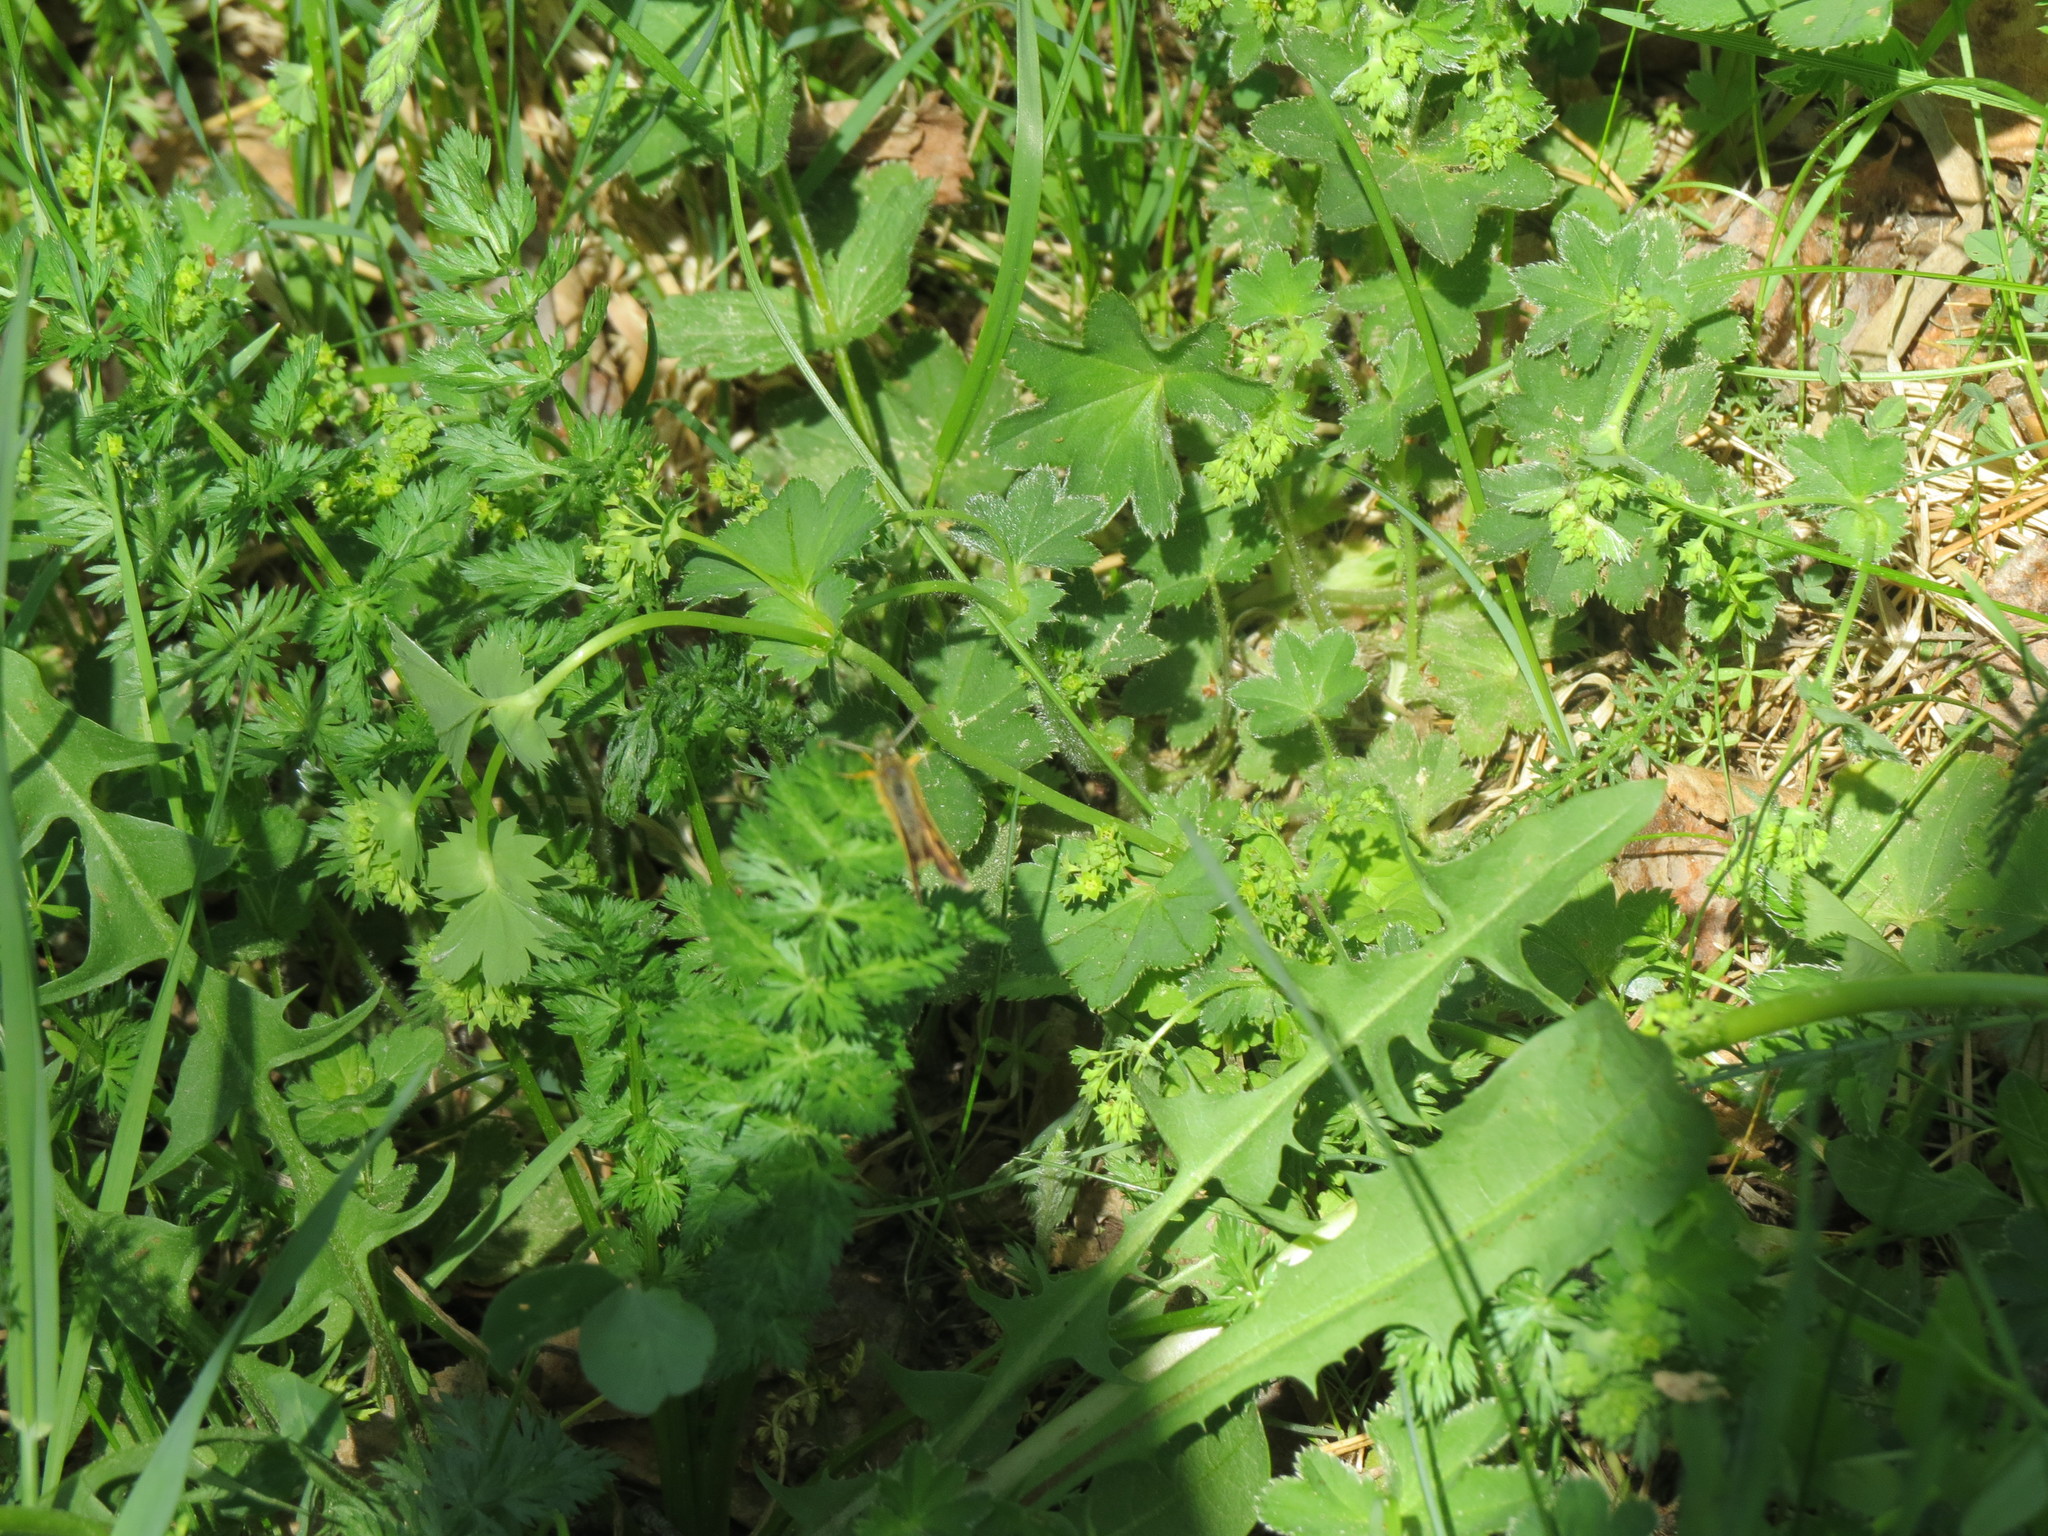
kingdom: Animalia
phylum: Arthropoda
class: Insecta
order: Lepidoptera
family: Hesperiidae
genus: Carterocephalus
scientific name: Carterocephalus palaemon
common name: Chequered skipper
